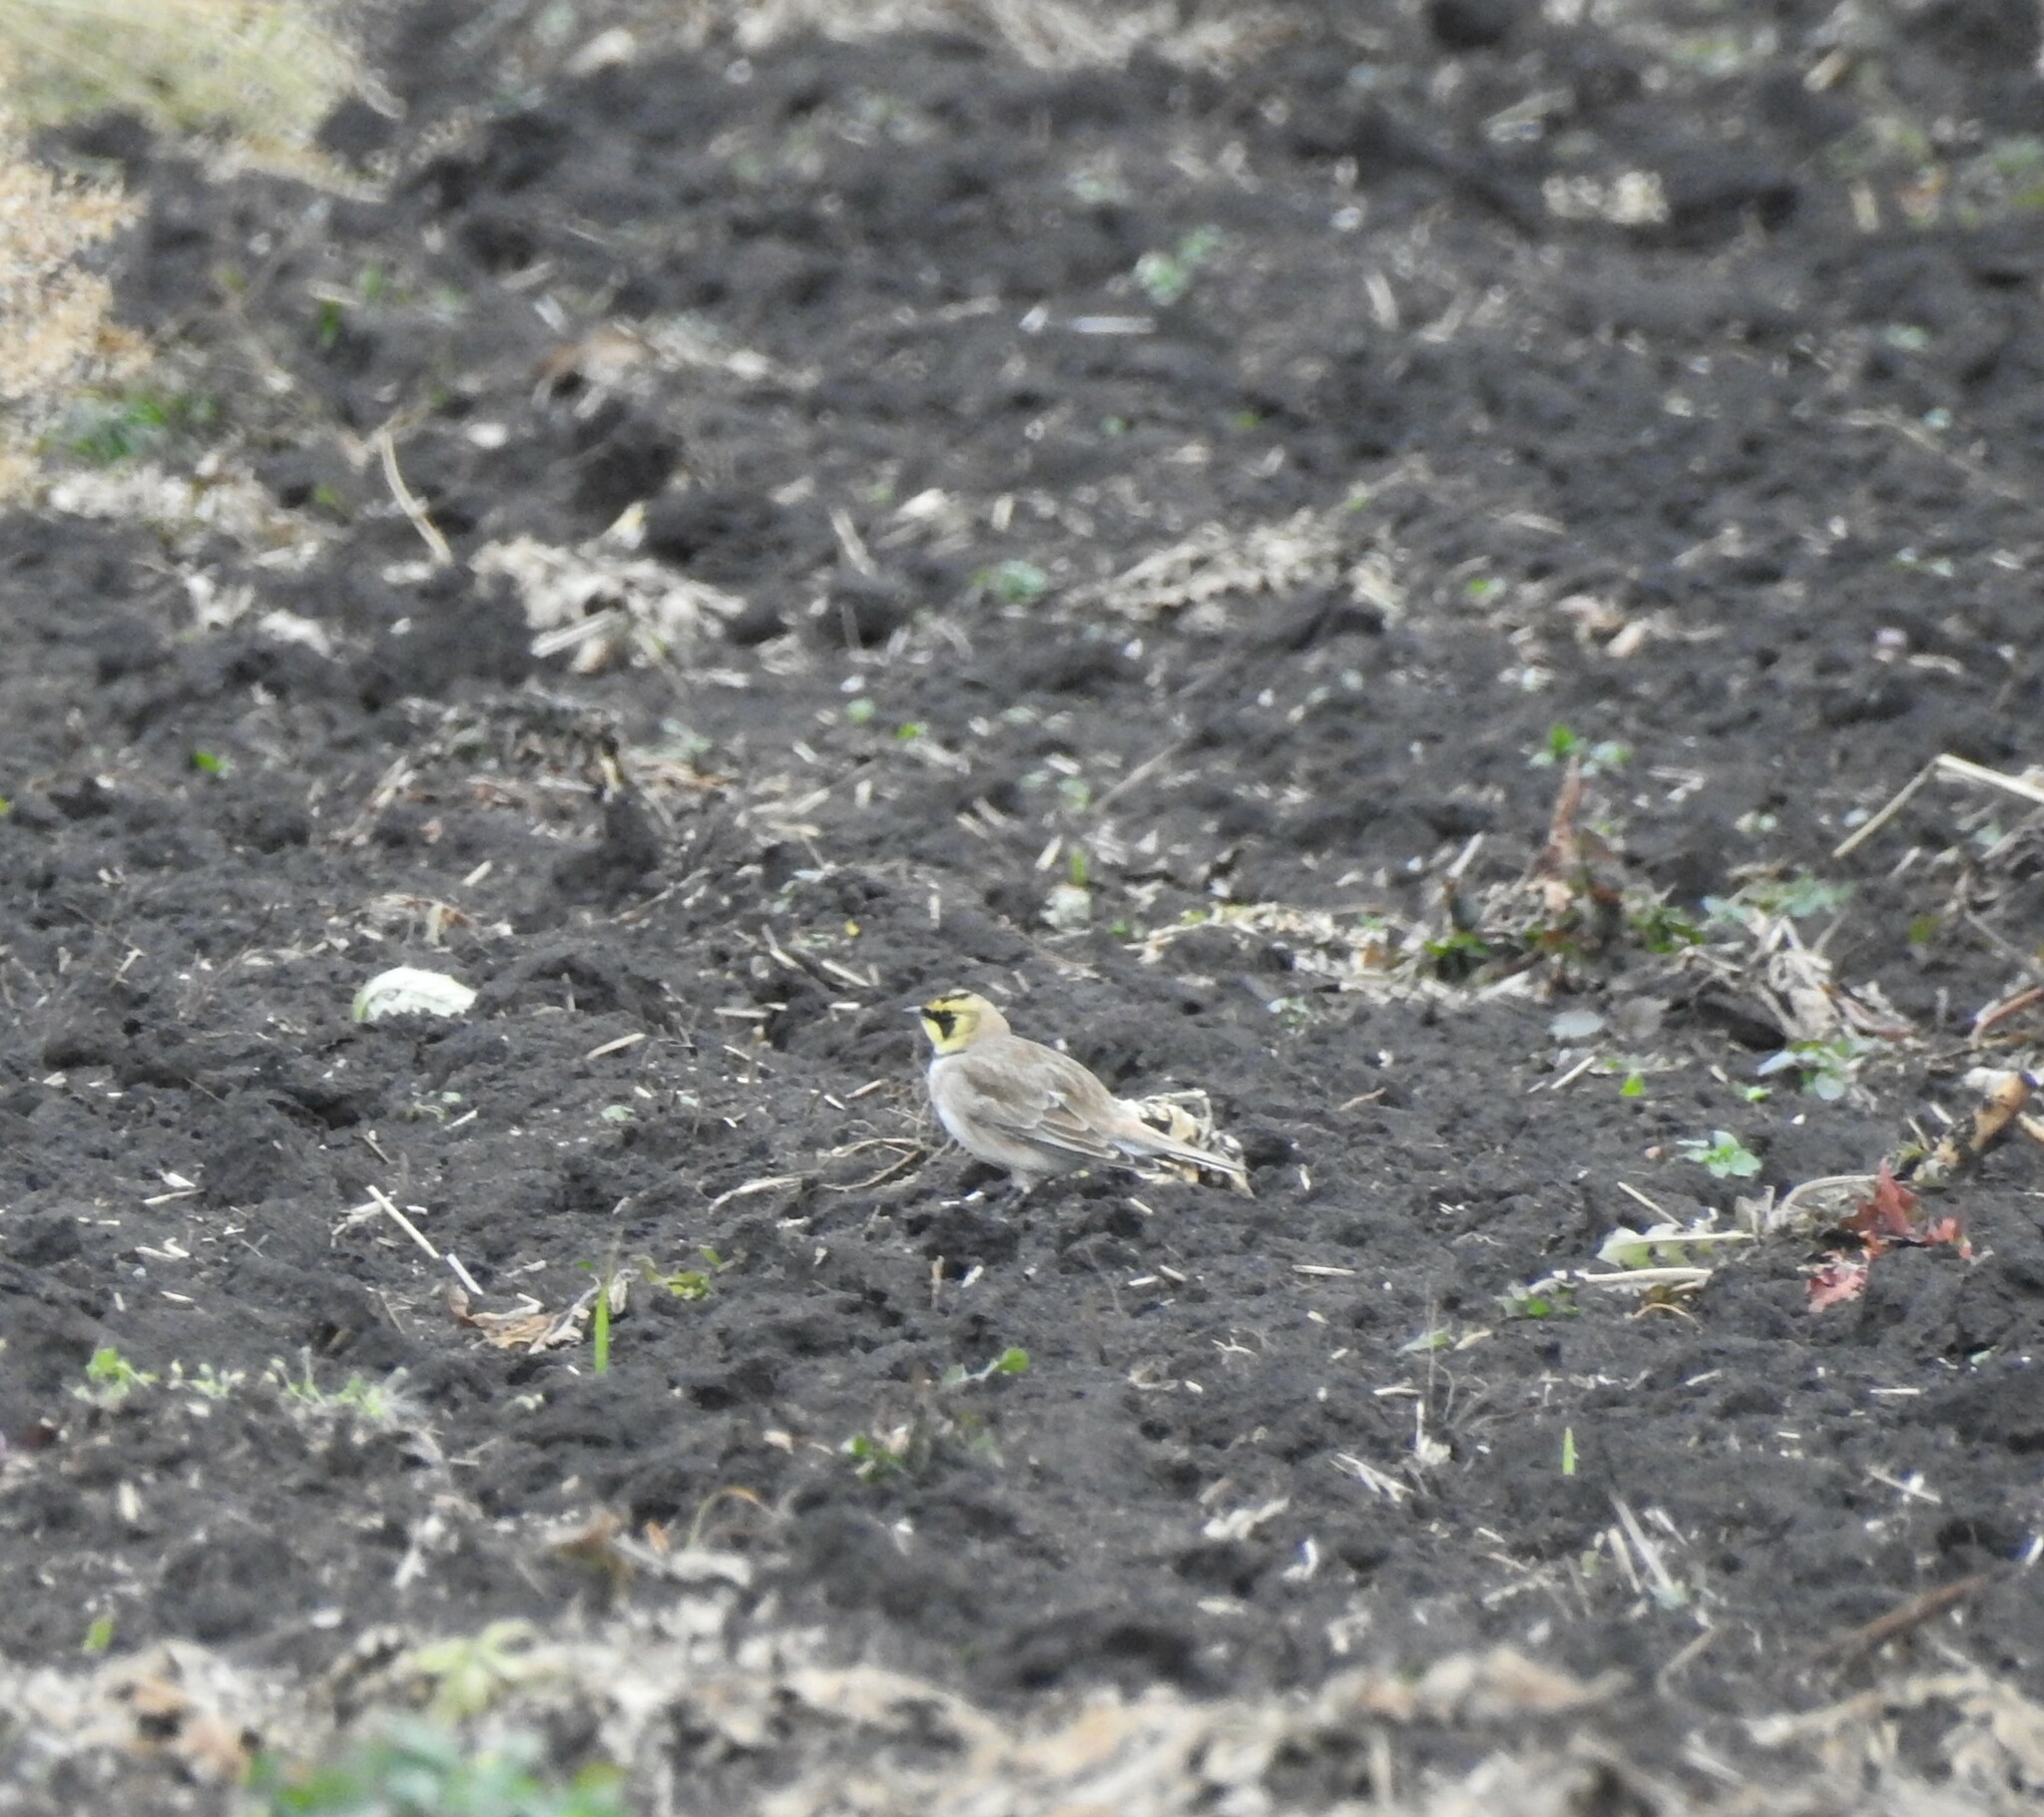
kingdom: Animalia
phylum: Chordata
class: Aves
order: Passeriformes
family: Alaudidae
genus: Eremophila
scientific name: Eremophila alpestris
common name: Horned lark
